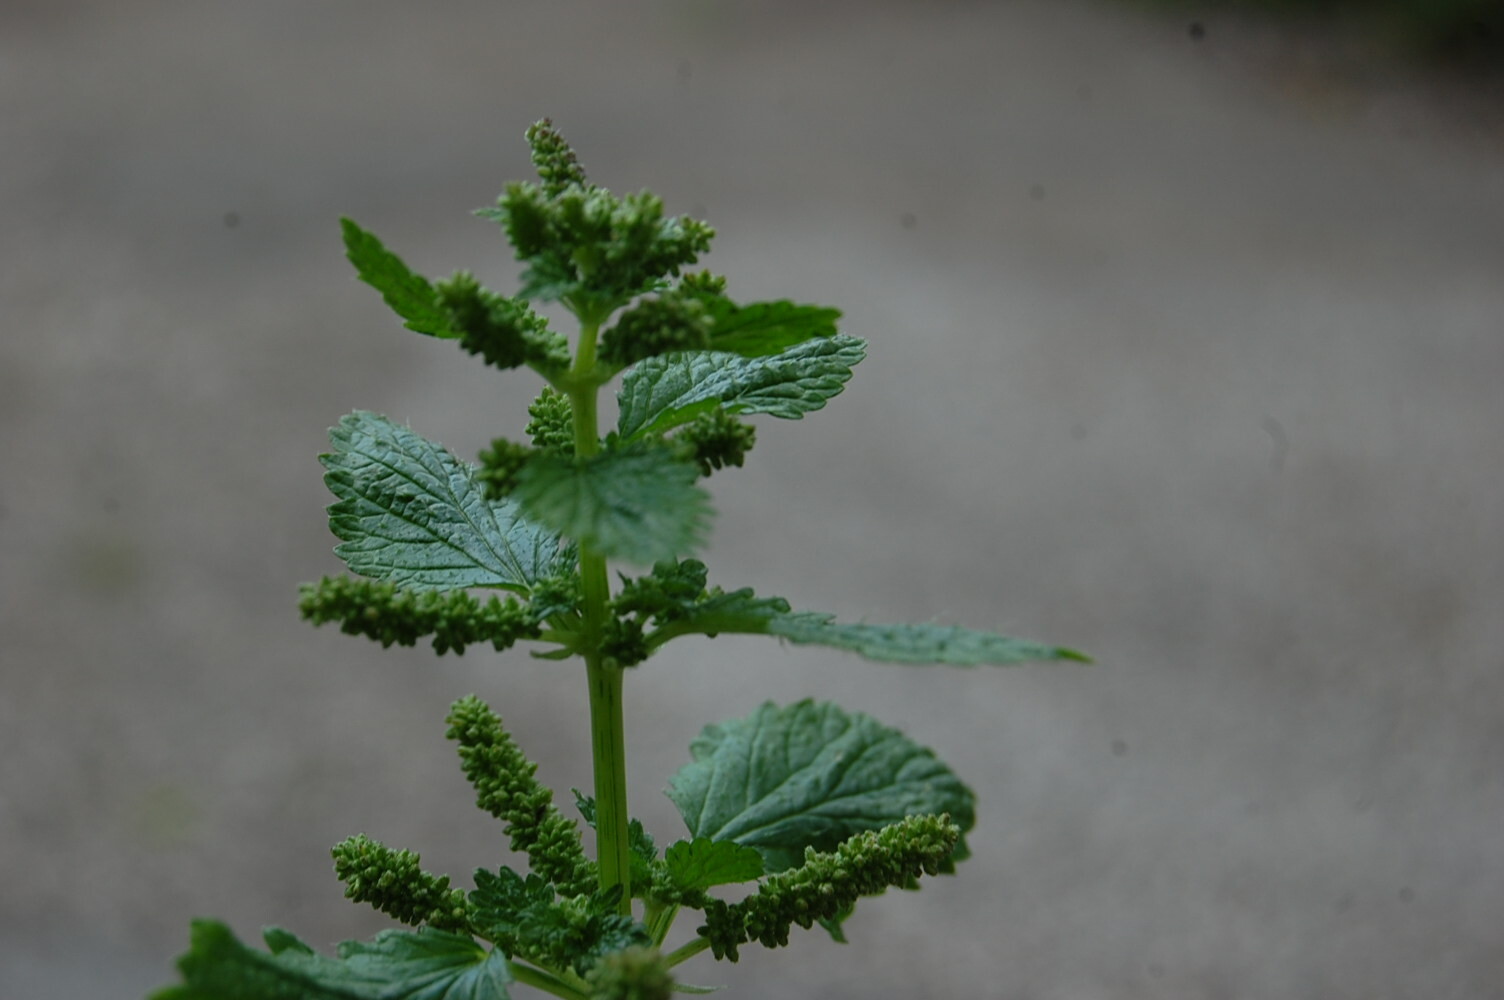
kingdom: Plantae
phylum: Tracheophyta
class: Magnoliopsida
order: Rosales
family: Urticaceae
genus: Urtica
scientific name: Urtica membranacea
